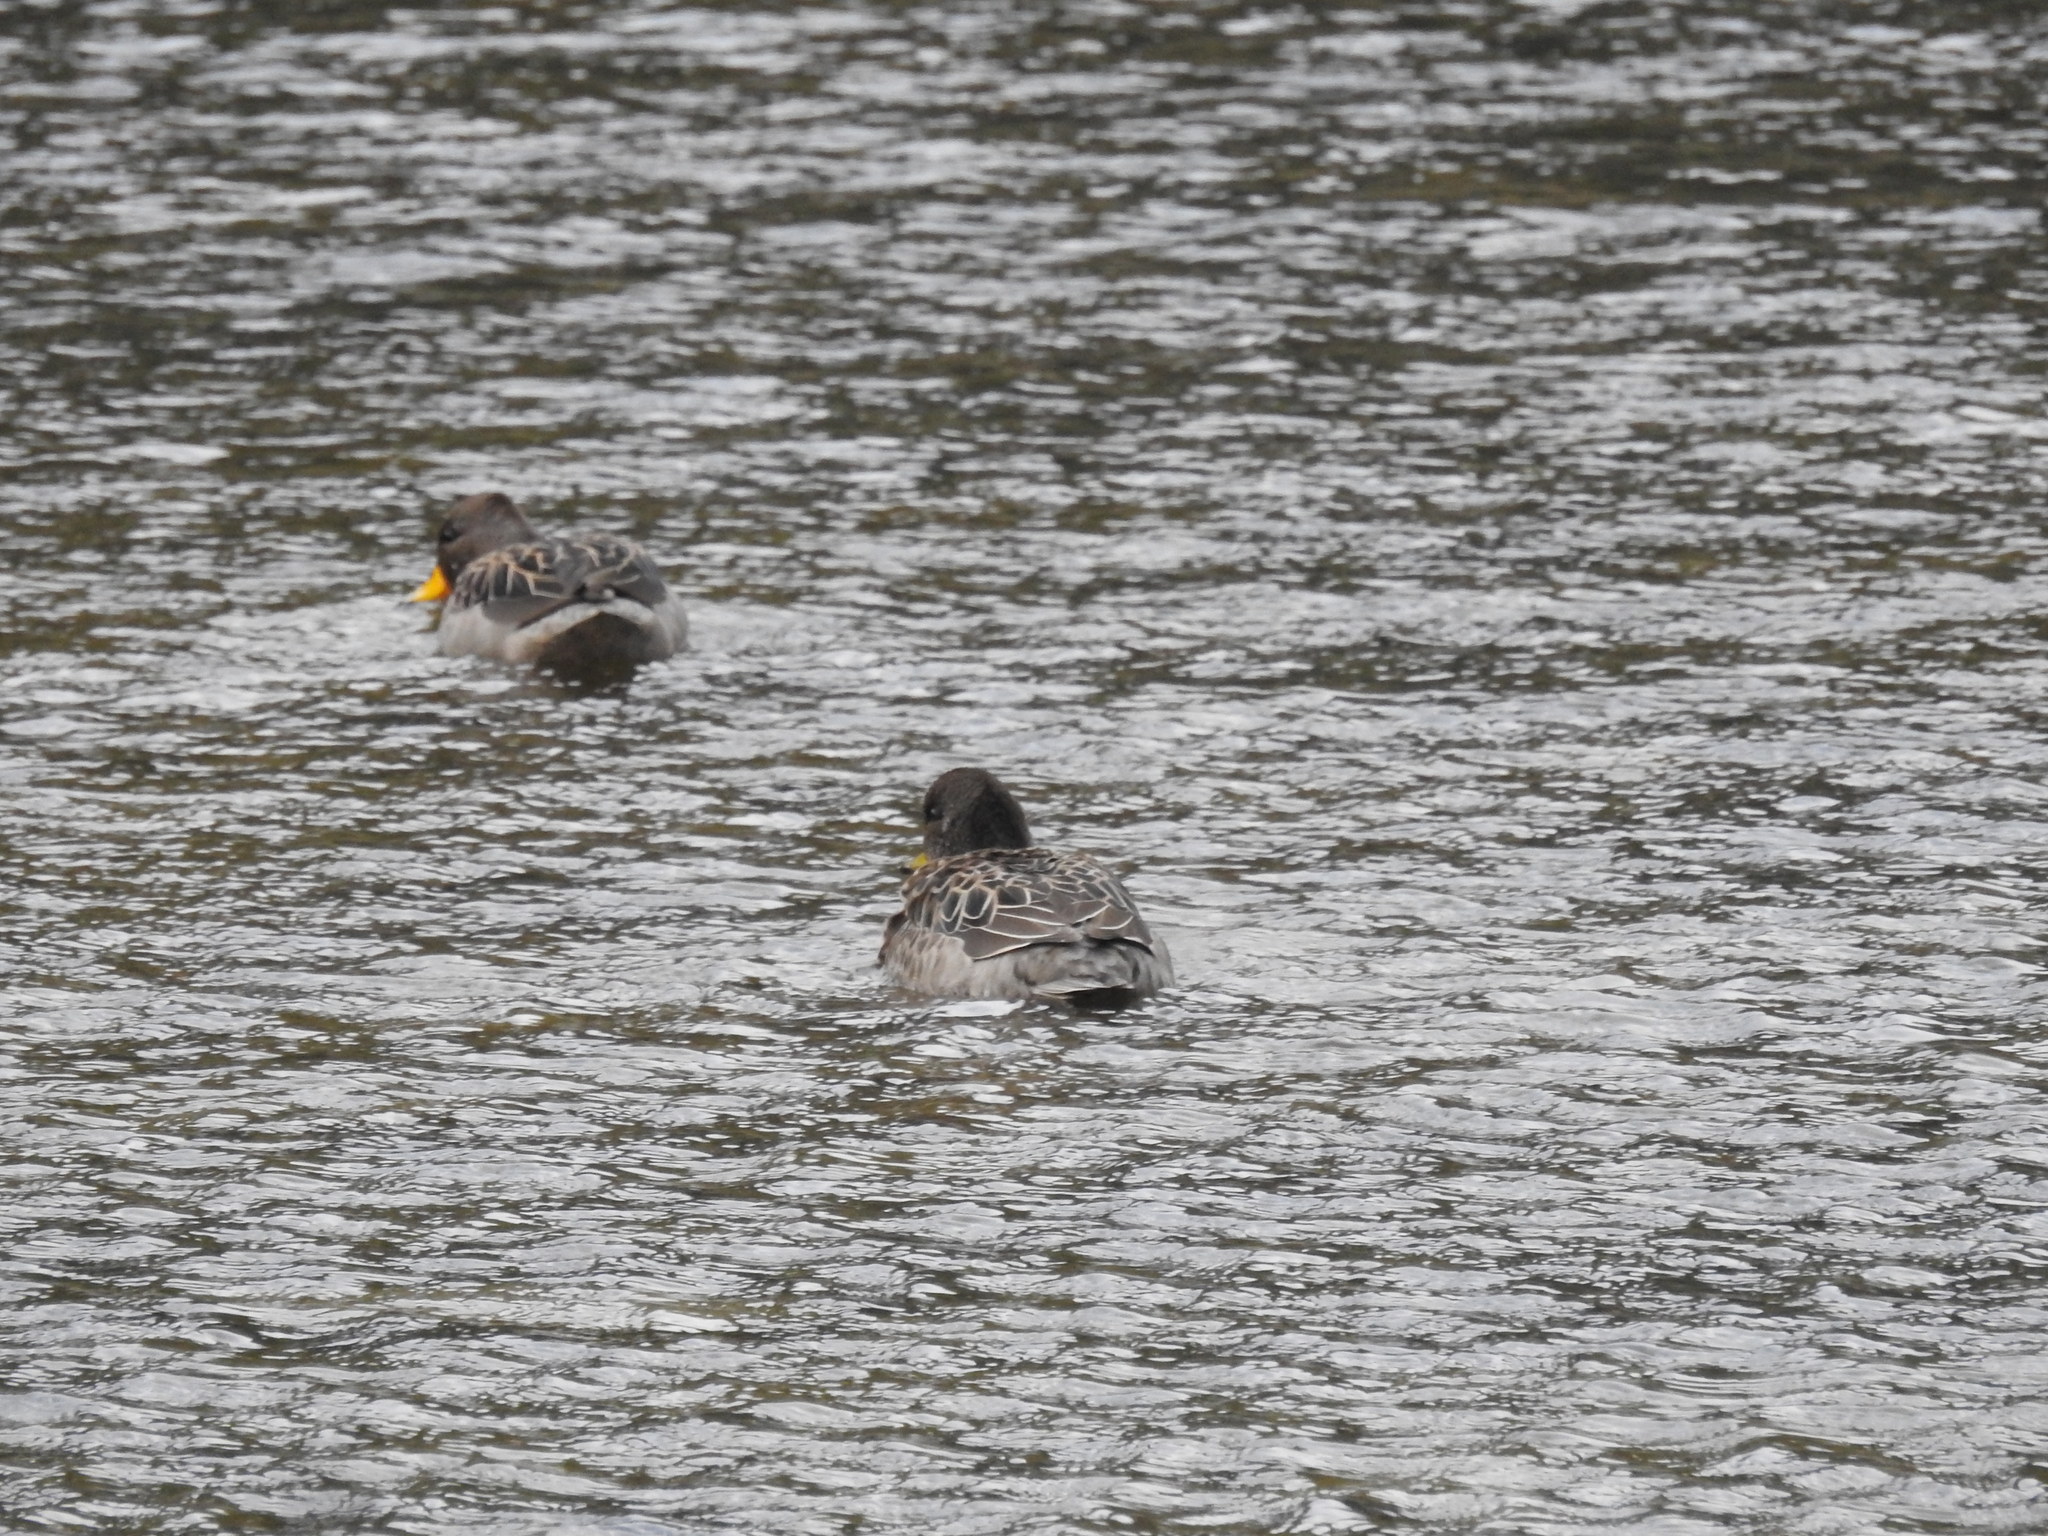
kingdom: Animalia
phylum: Chordata
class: Aves
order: Anseriformes
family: Anatidae
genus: Anas
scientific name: Anas flavirostris
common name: Yellow-billed teal
